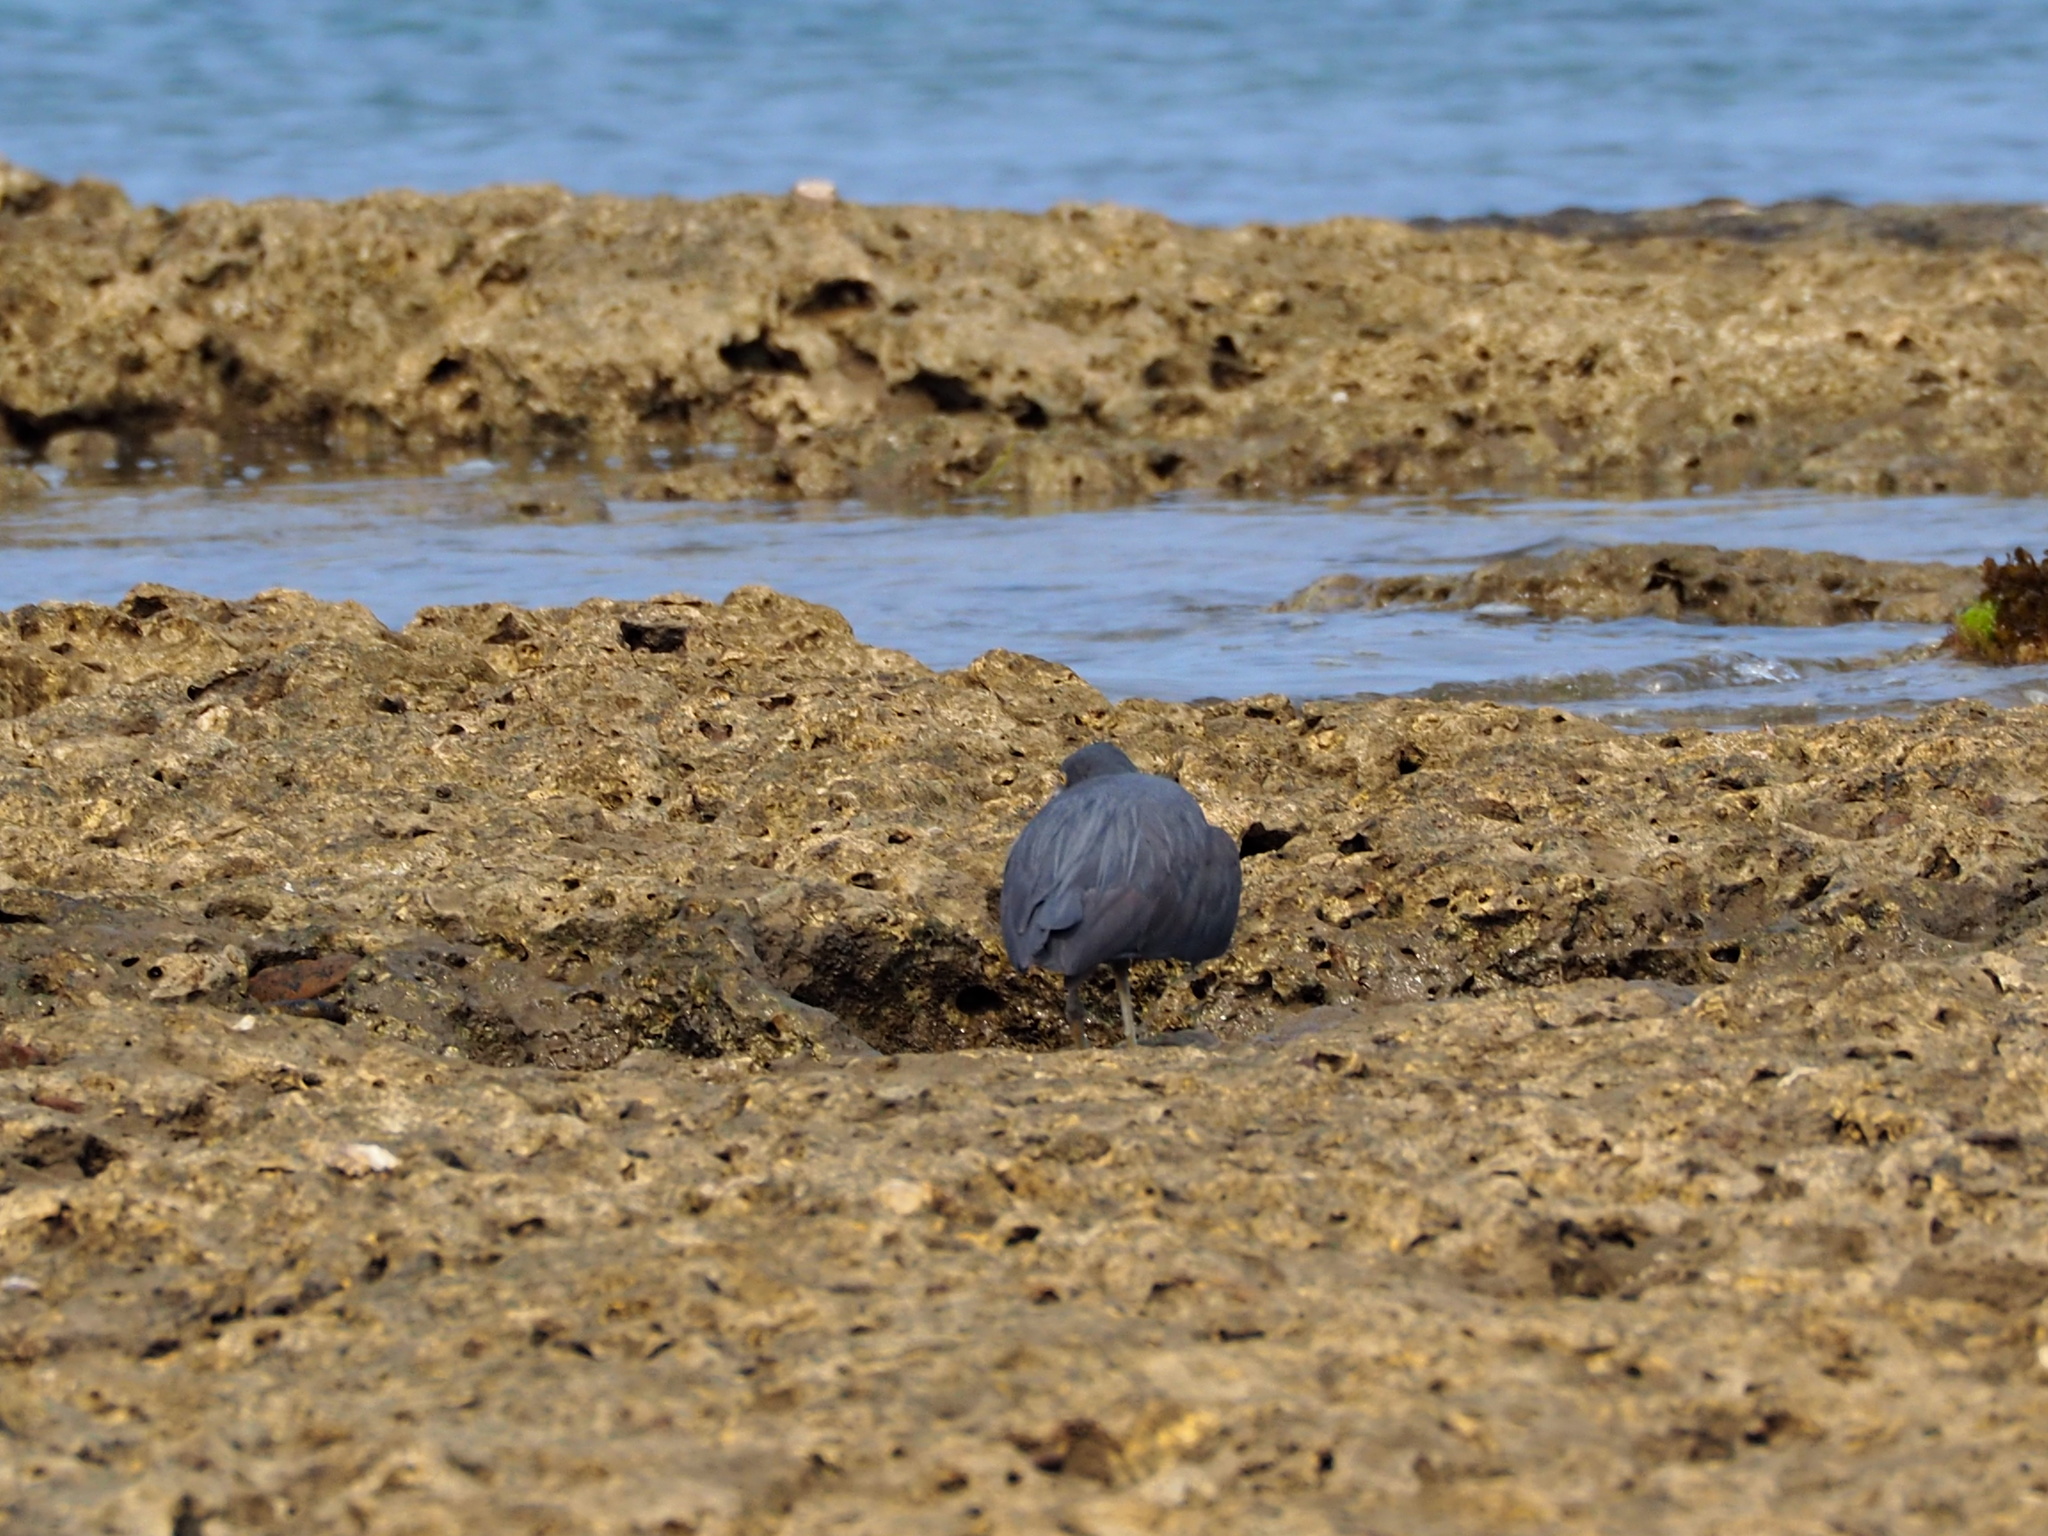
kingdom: Animalia
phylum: Chordata
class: Aves
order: Pelecaniformes
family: Ardeidae
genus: Egretta
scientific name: Egretta sacra
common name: Pacific reef heron
